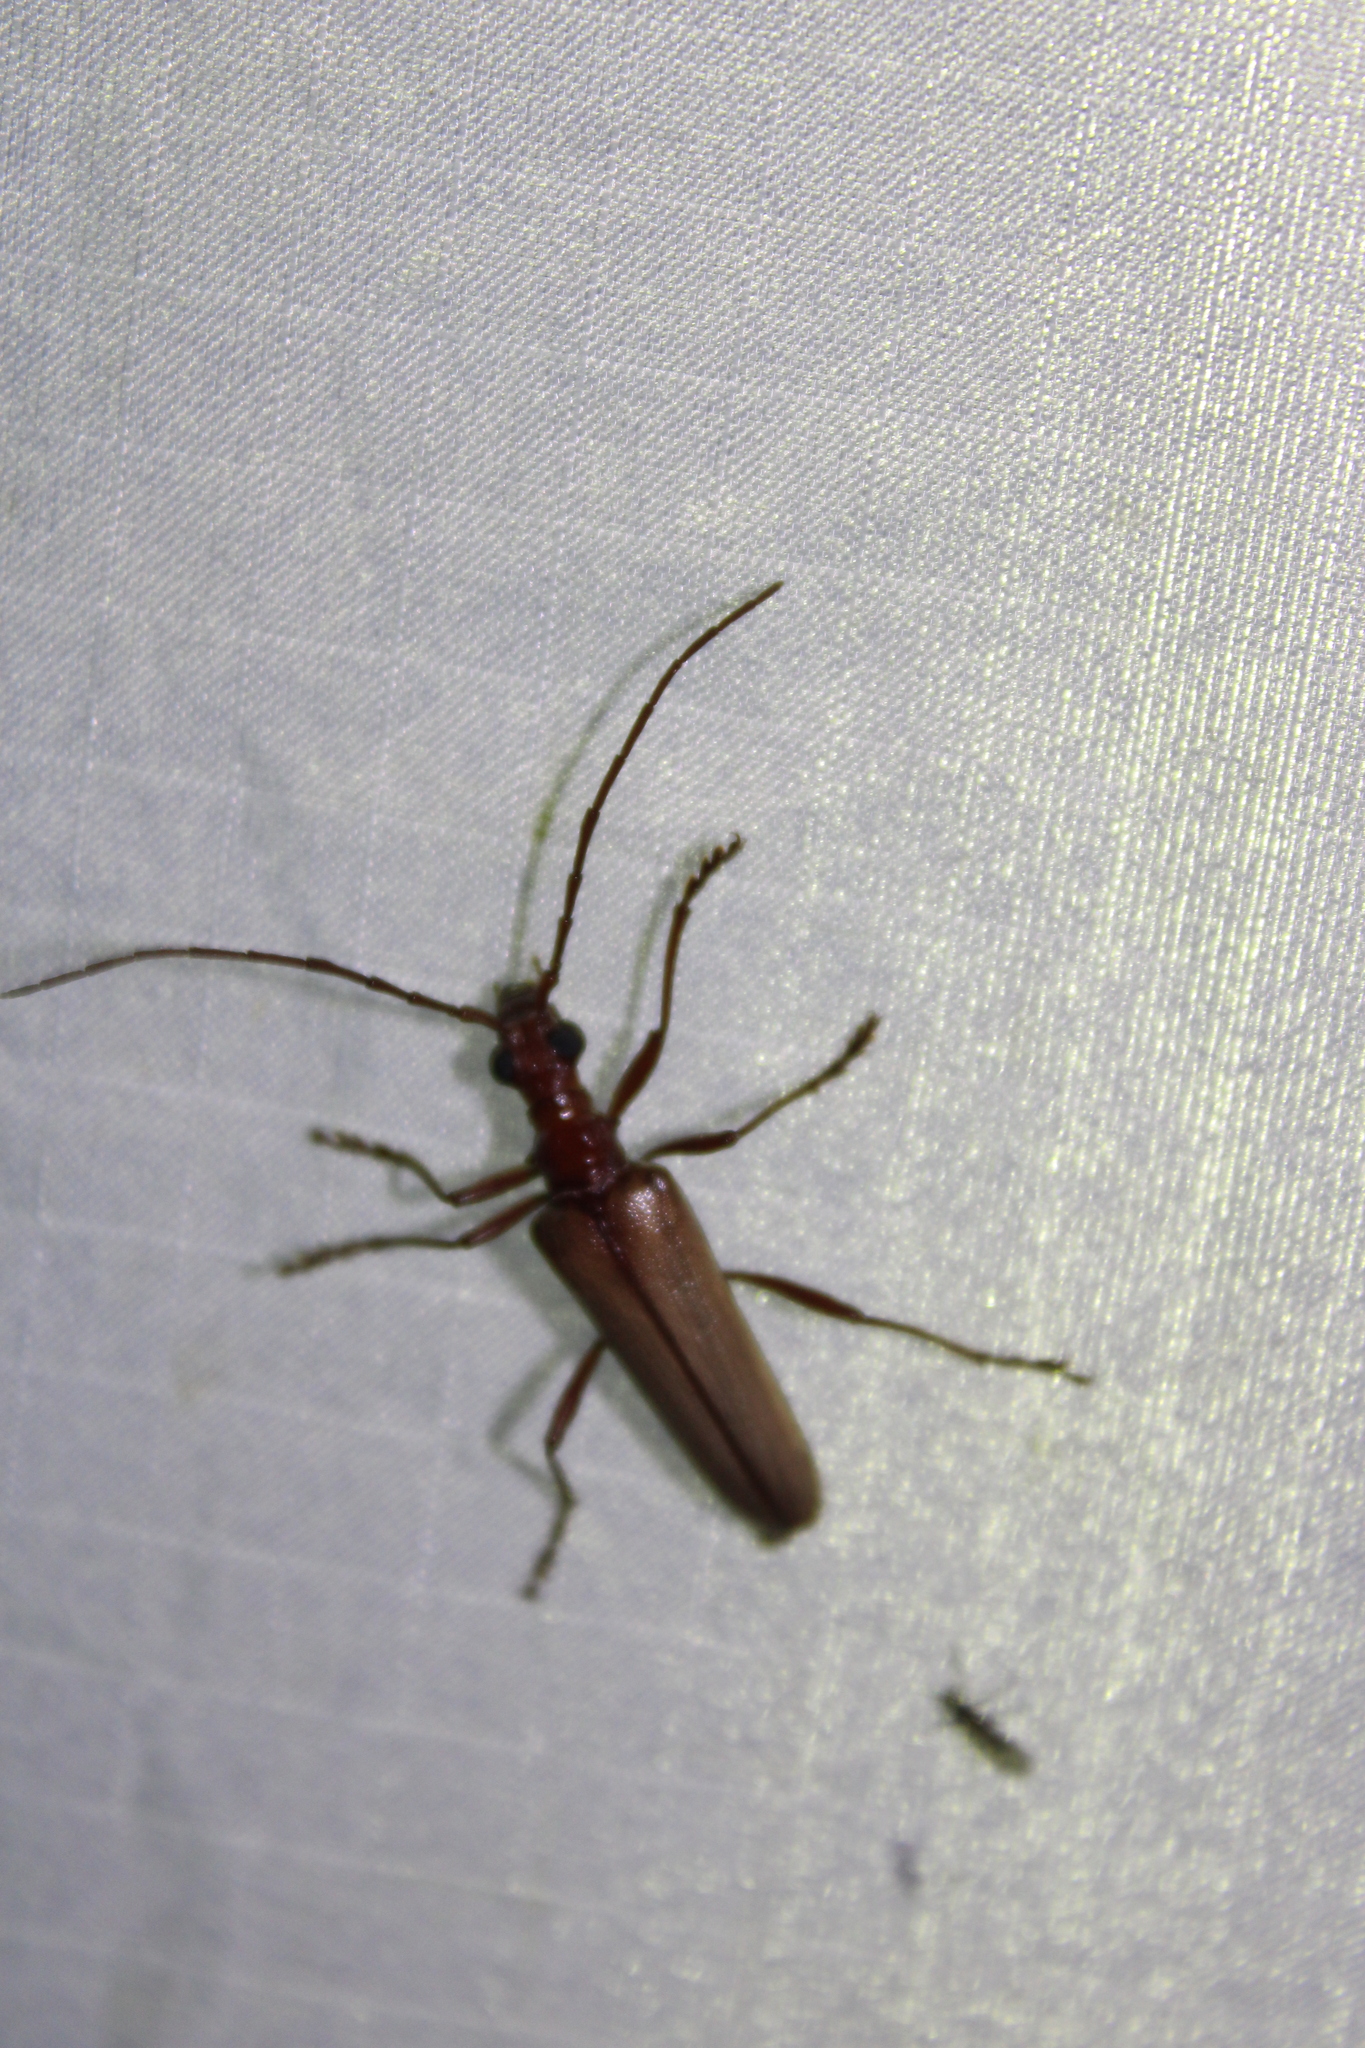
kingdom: Animalia
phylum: Arthropoda
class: Insecta
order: Coleoptera
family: Cerambycidae
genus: Centrodera
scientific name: Centrodera decolorata
